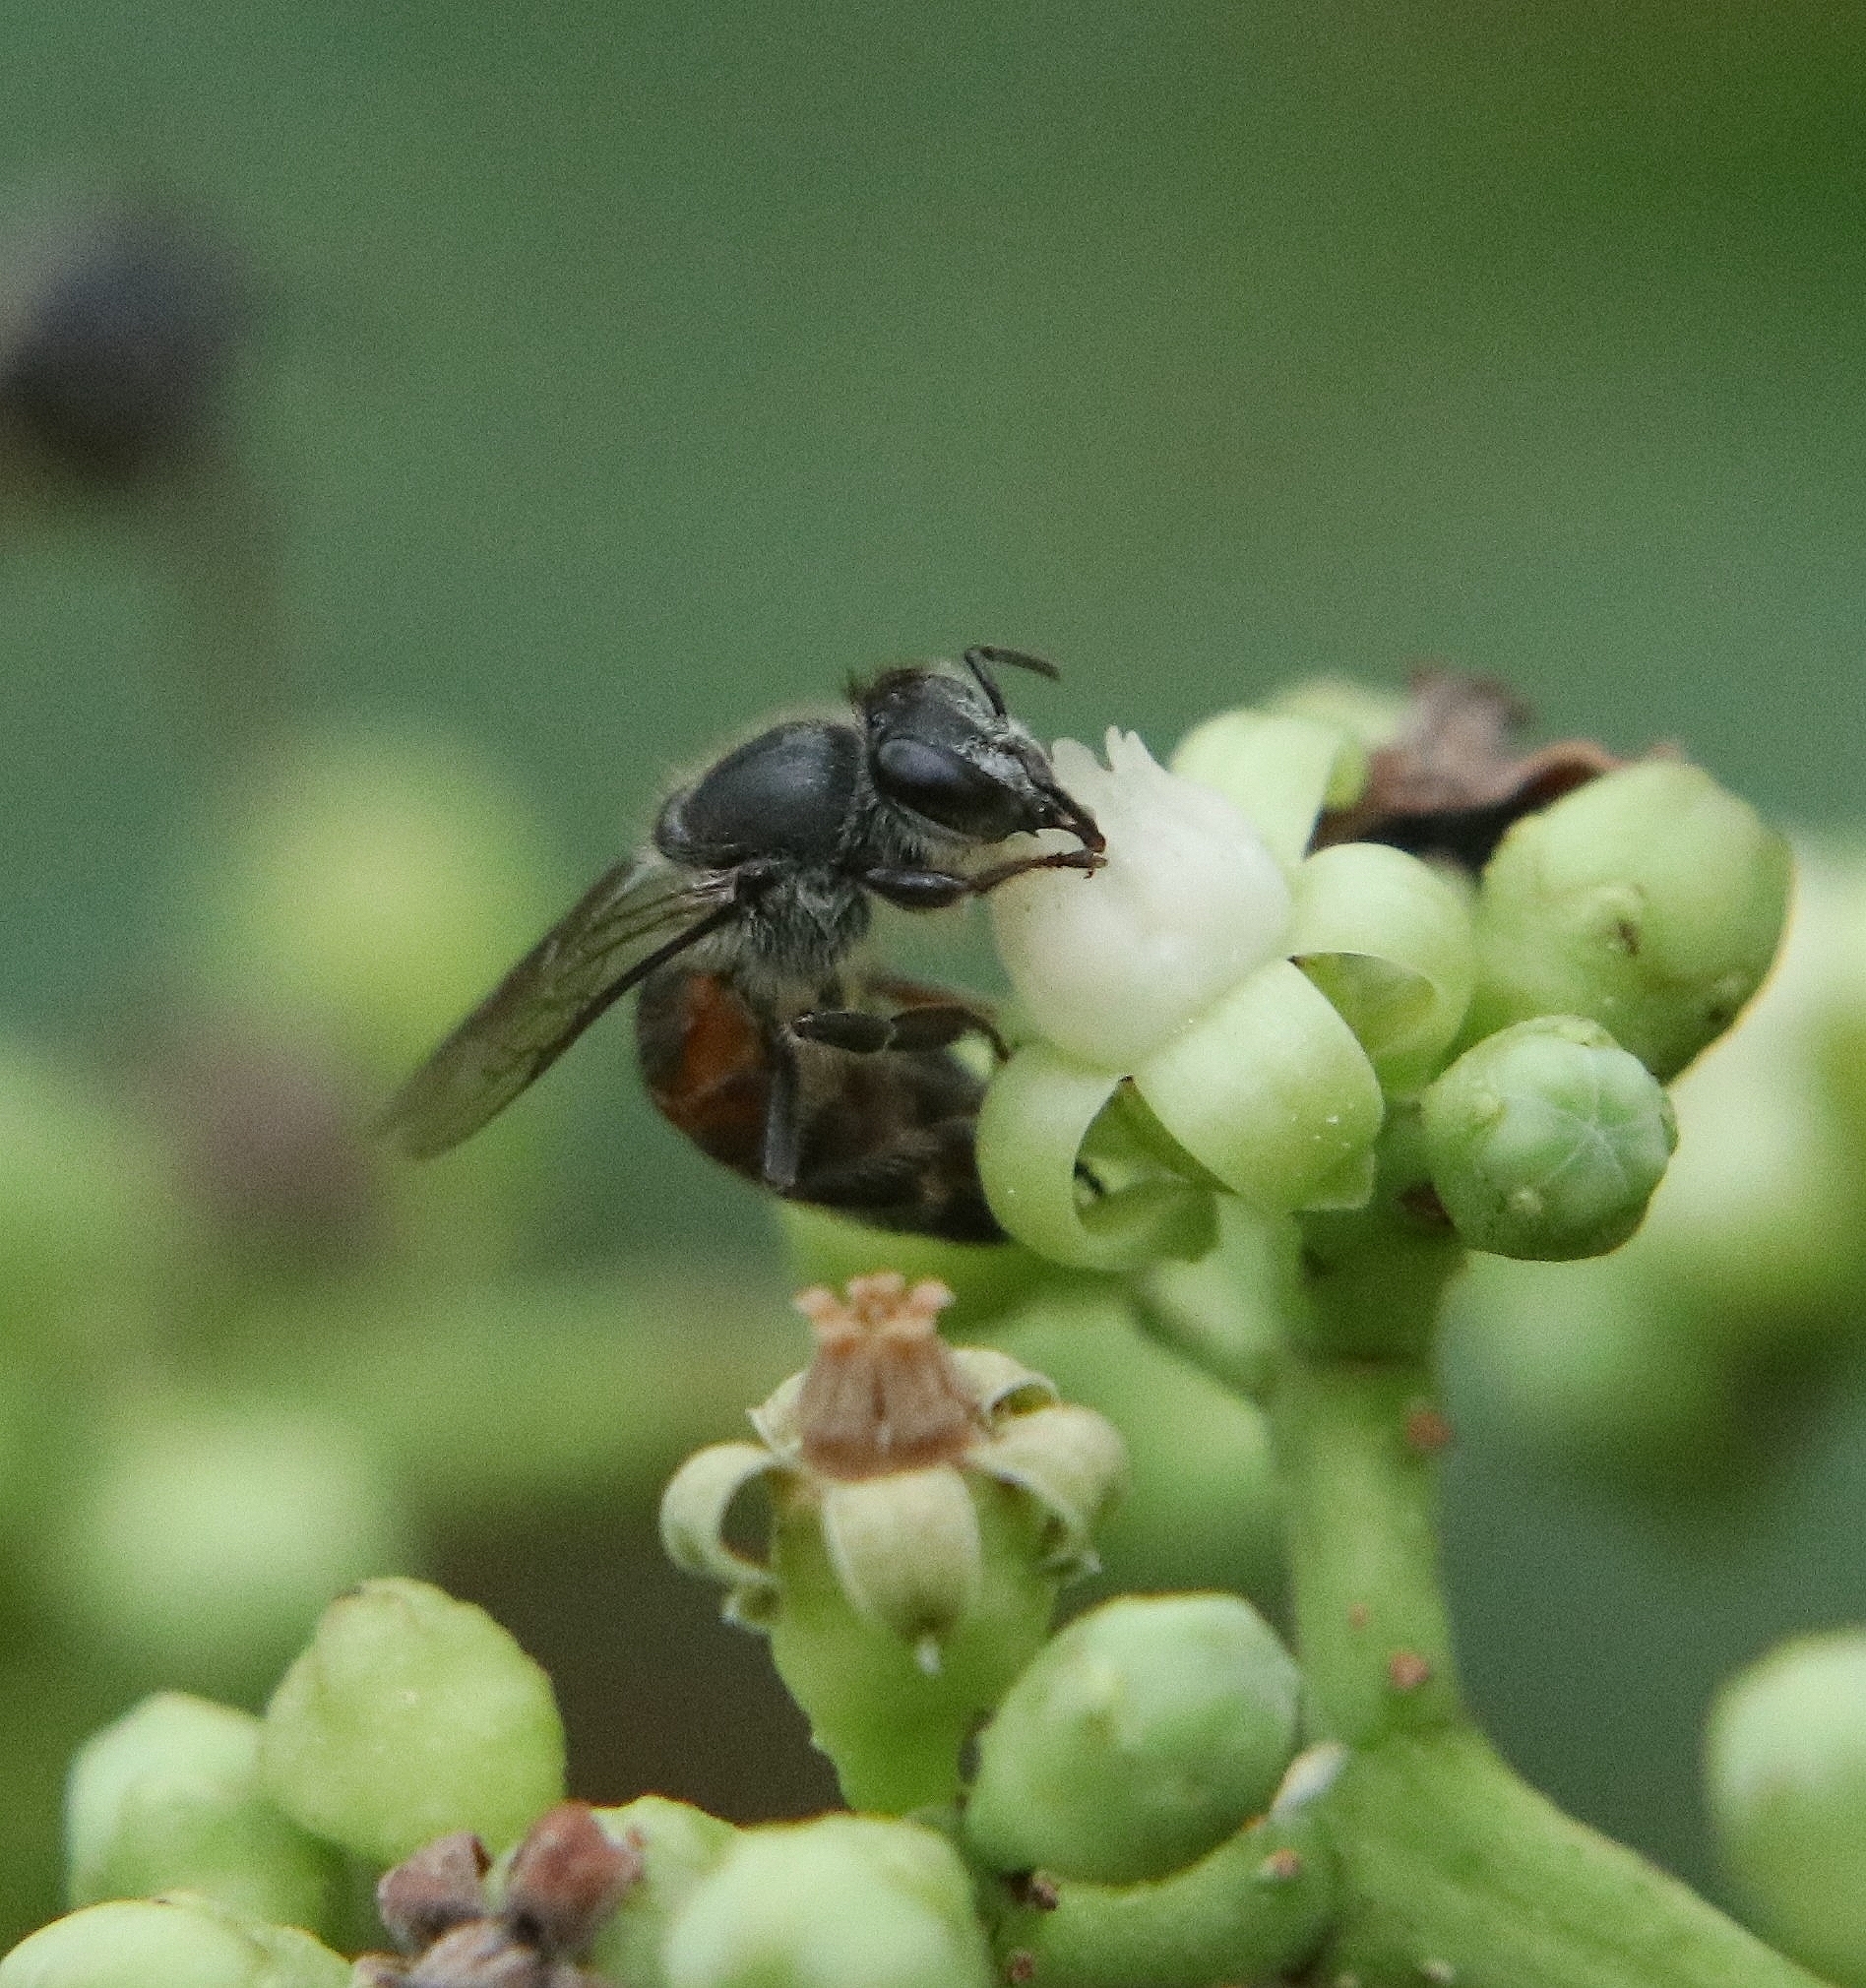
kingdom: Animalia
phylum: Arthropoda
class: Insecta
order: Hymenoptera
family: Apidae
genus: Apis
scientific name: Apis florea
